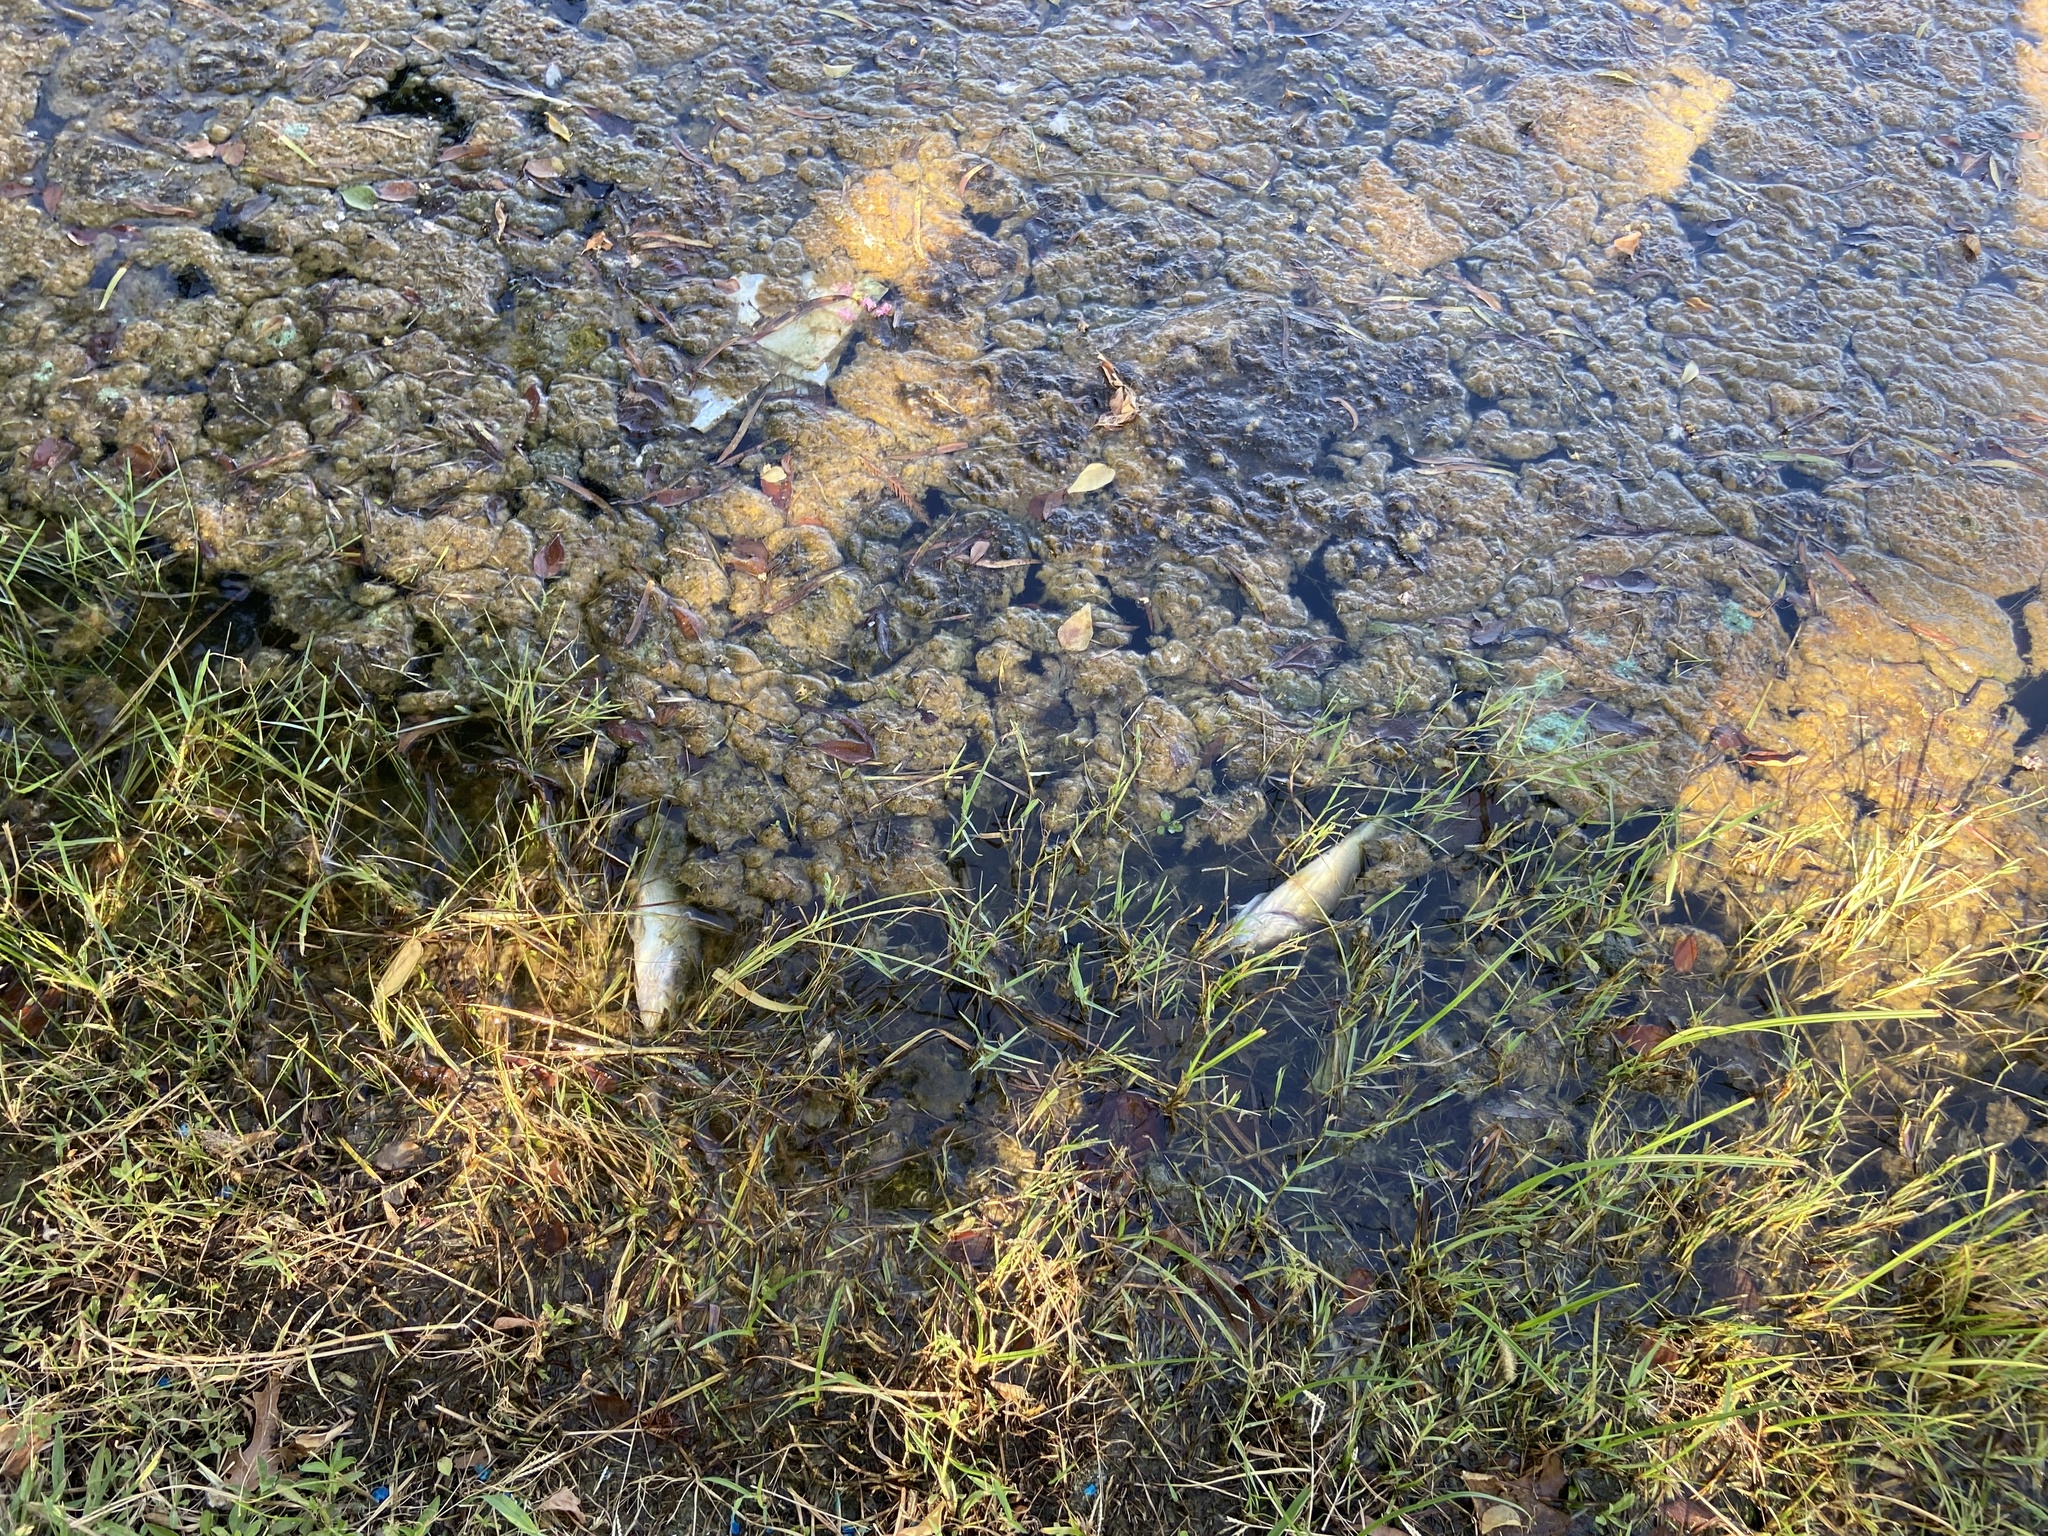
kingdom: Animalia
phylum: Chordata
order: Perciformes
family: Centrarchidae
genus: Micropterus
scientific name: Micropterus
